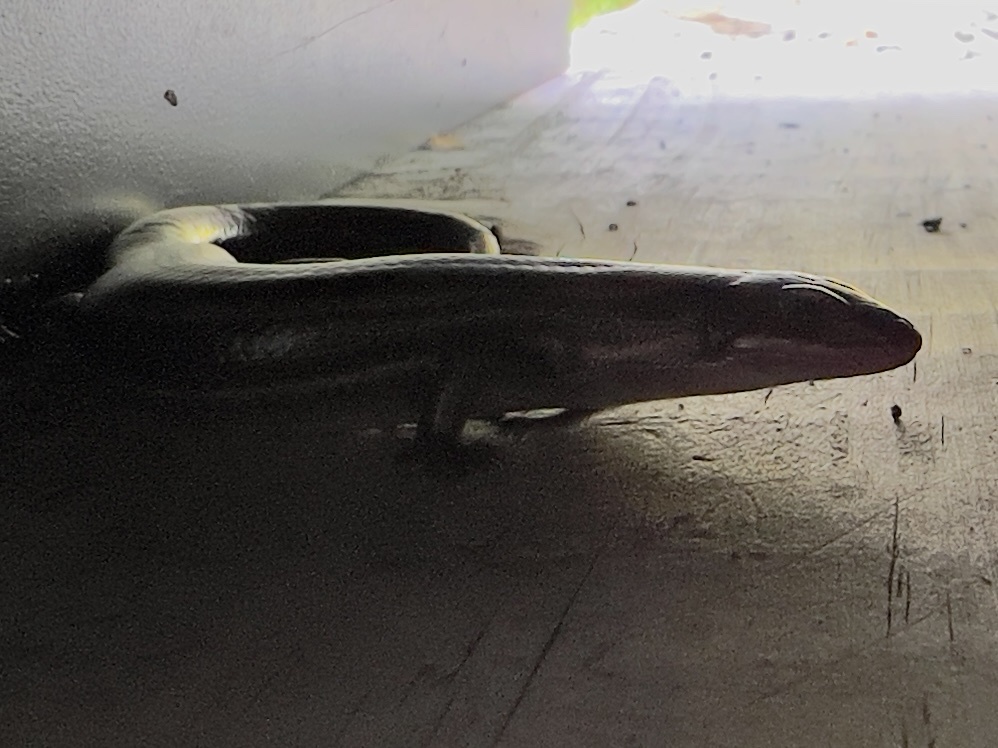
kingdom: Animalia
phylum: Chordata
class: Squamata
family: Scincidae
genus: Plestiodon
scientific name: Plestiodon fasciatus
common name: Five-lined skink
